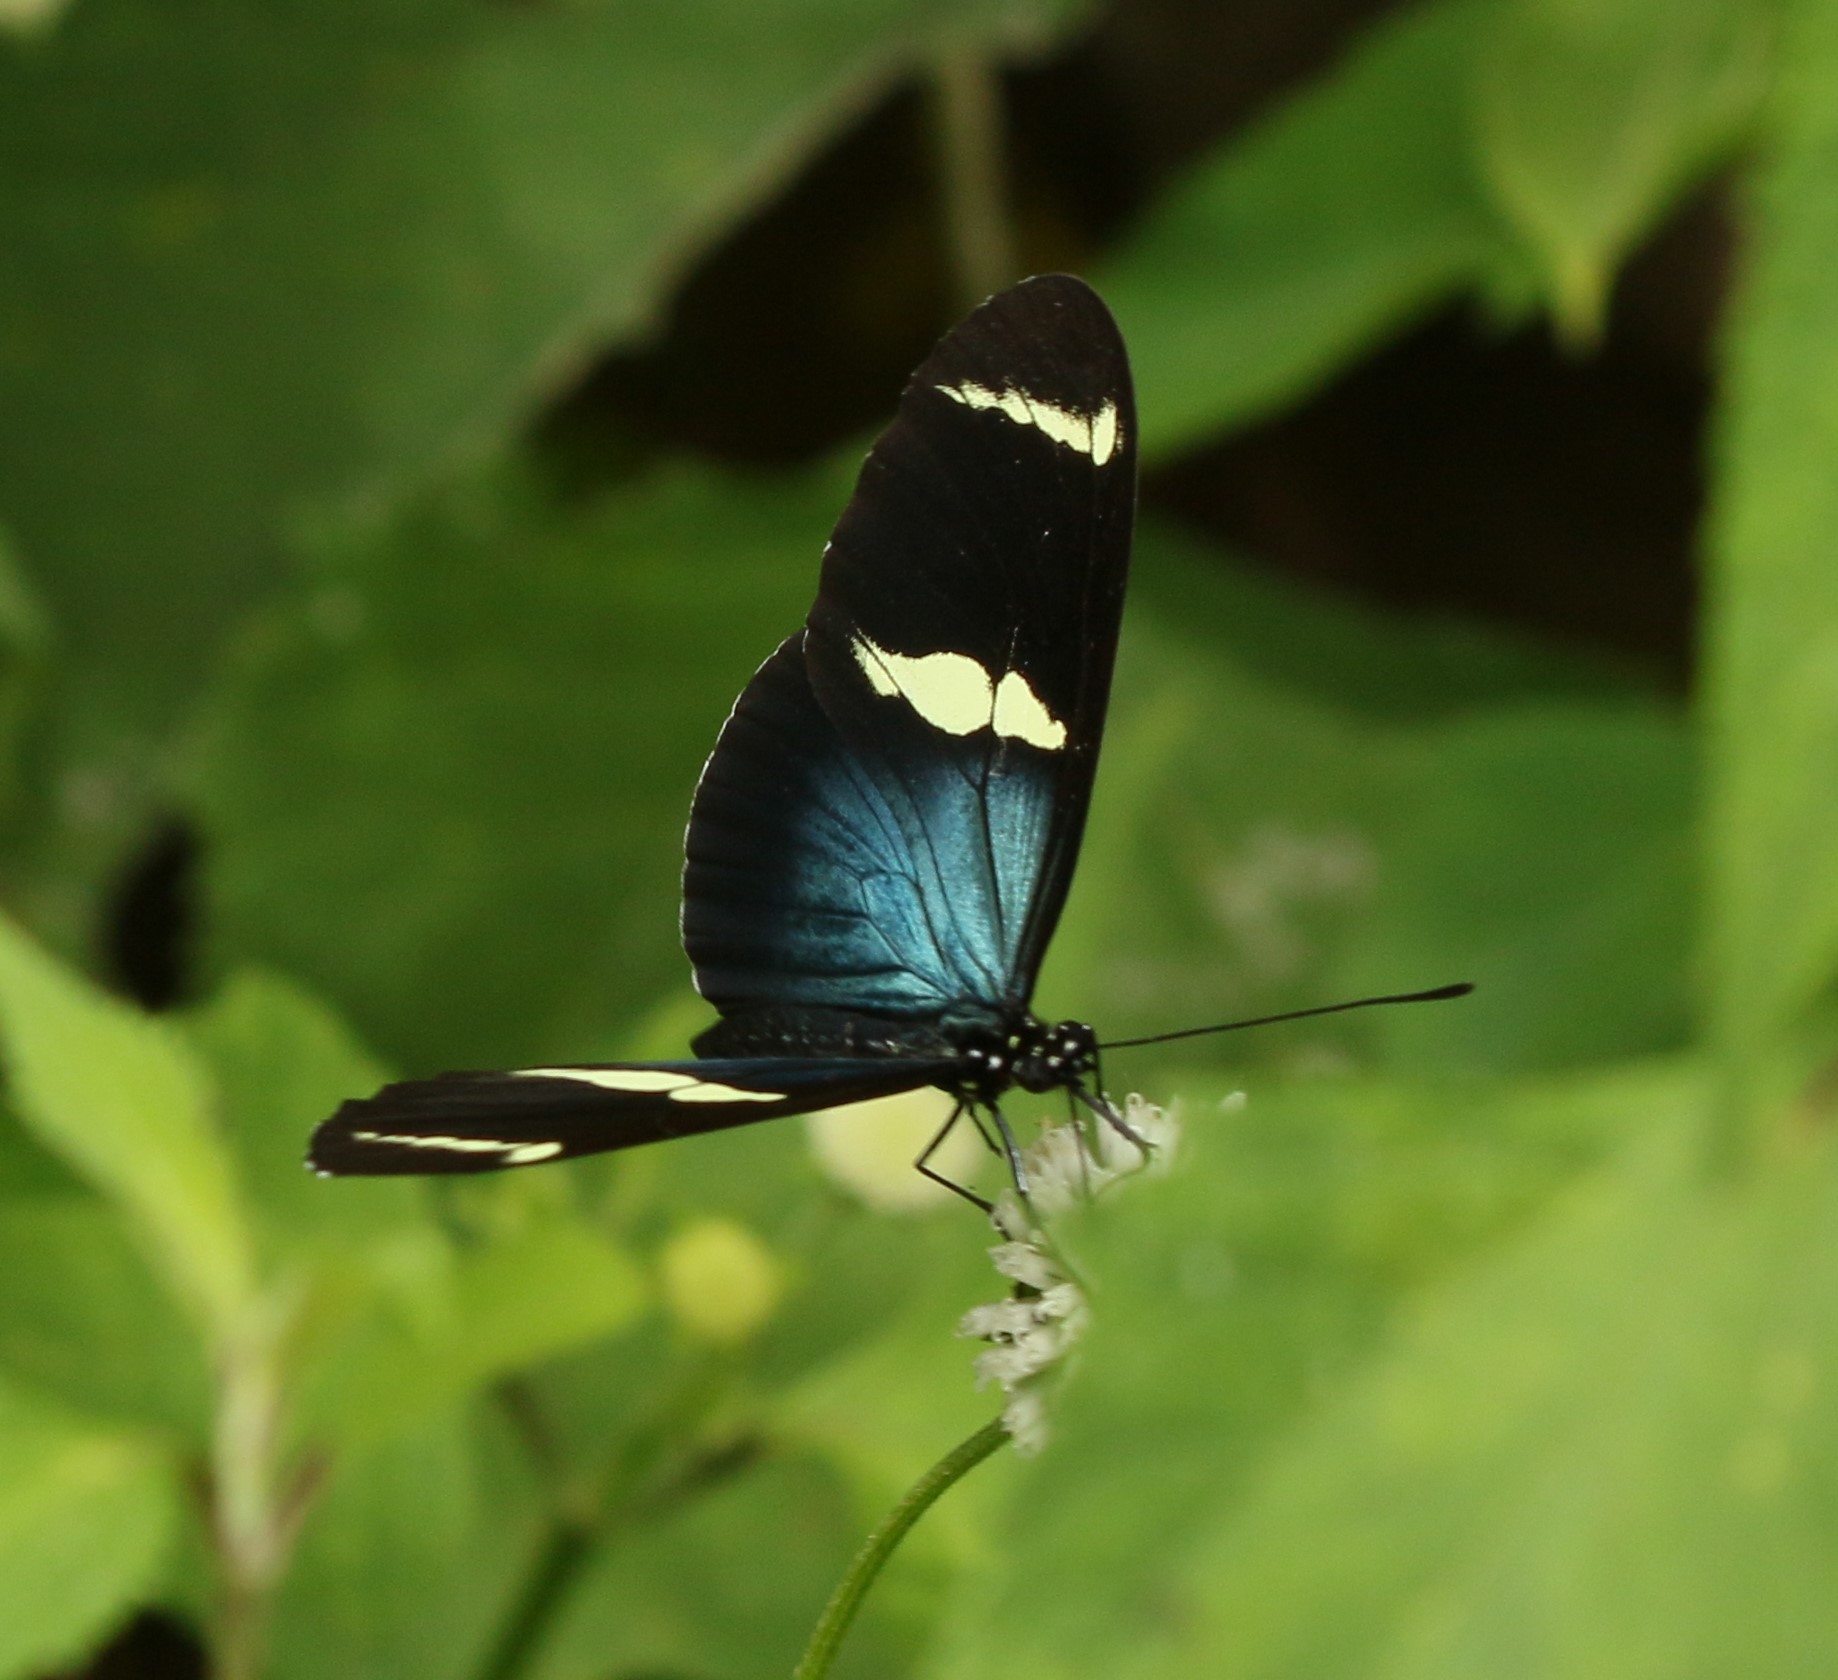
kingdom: Animalia
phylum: Arthropoda
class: Insecta
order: Lepidoptera
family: Nymphalidae
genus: Heliconius
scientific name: Heliconius sara
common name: Sara longwing
